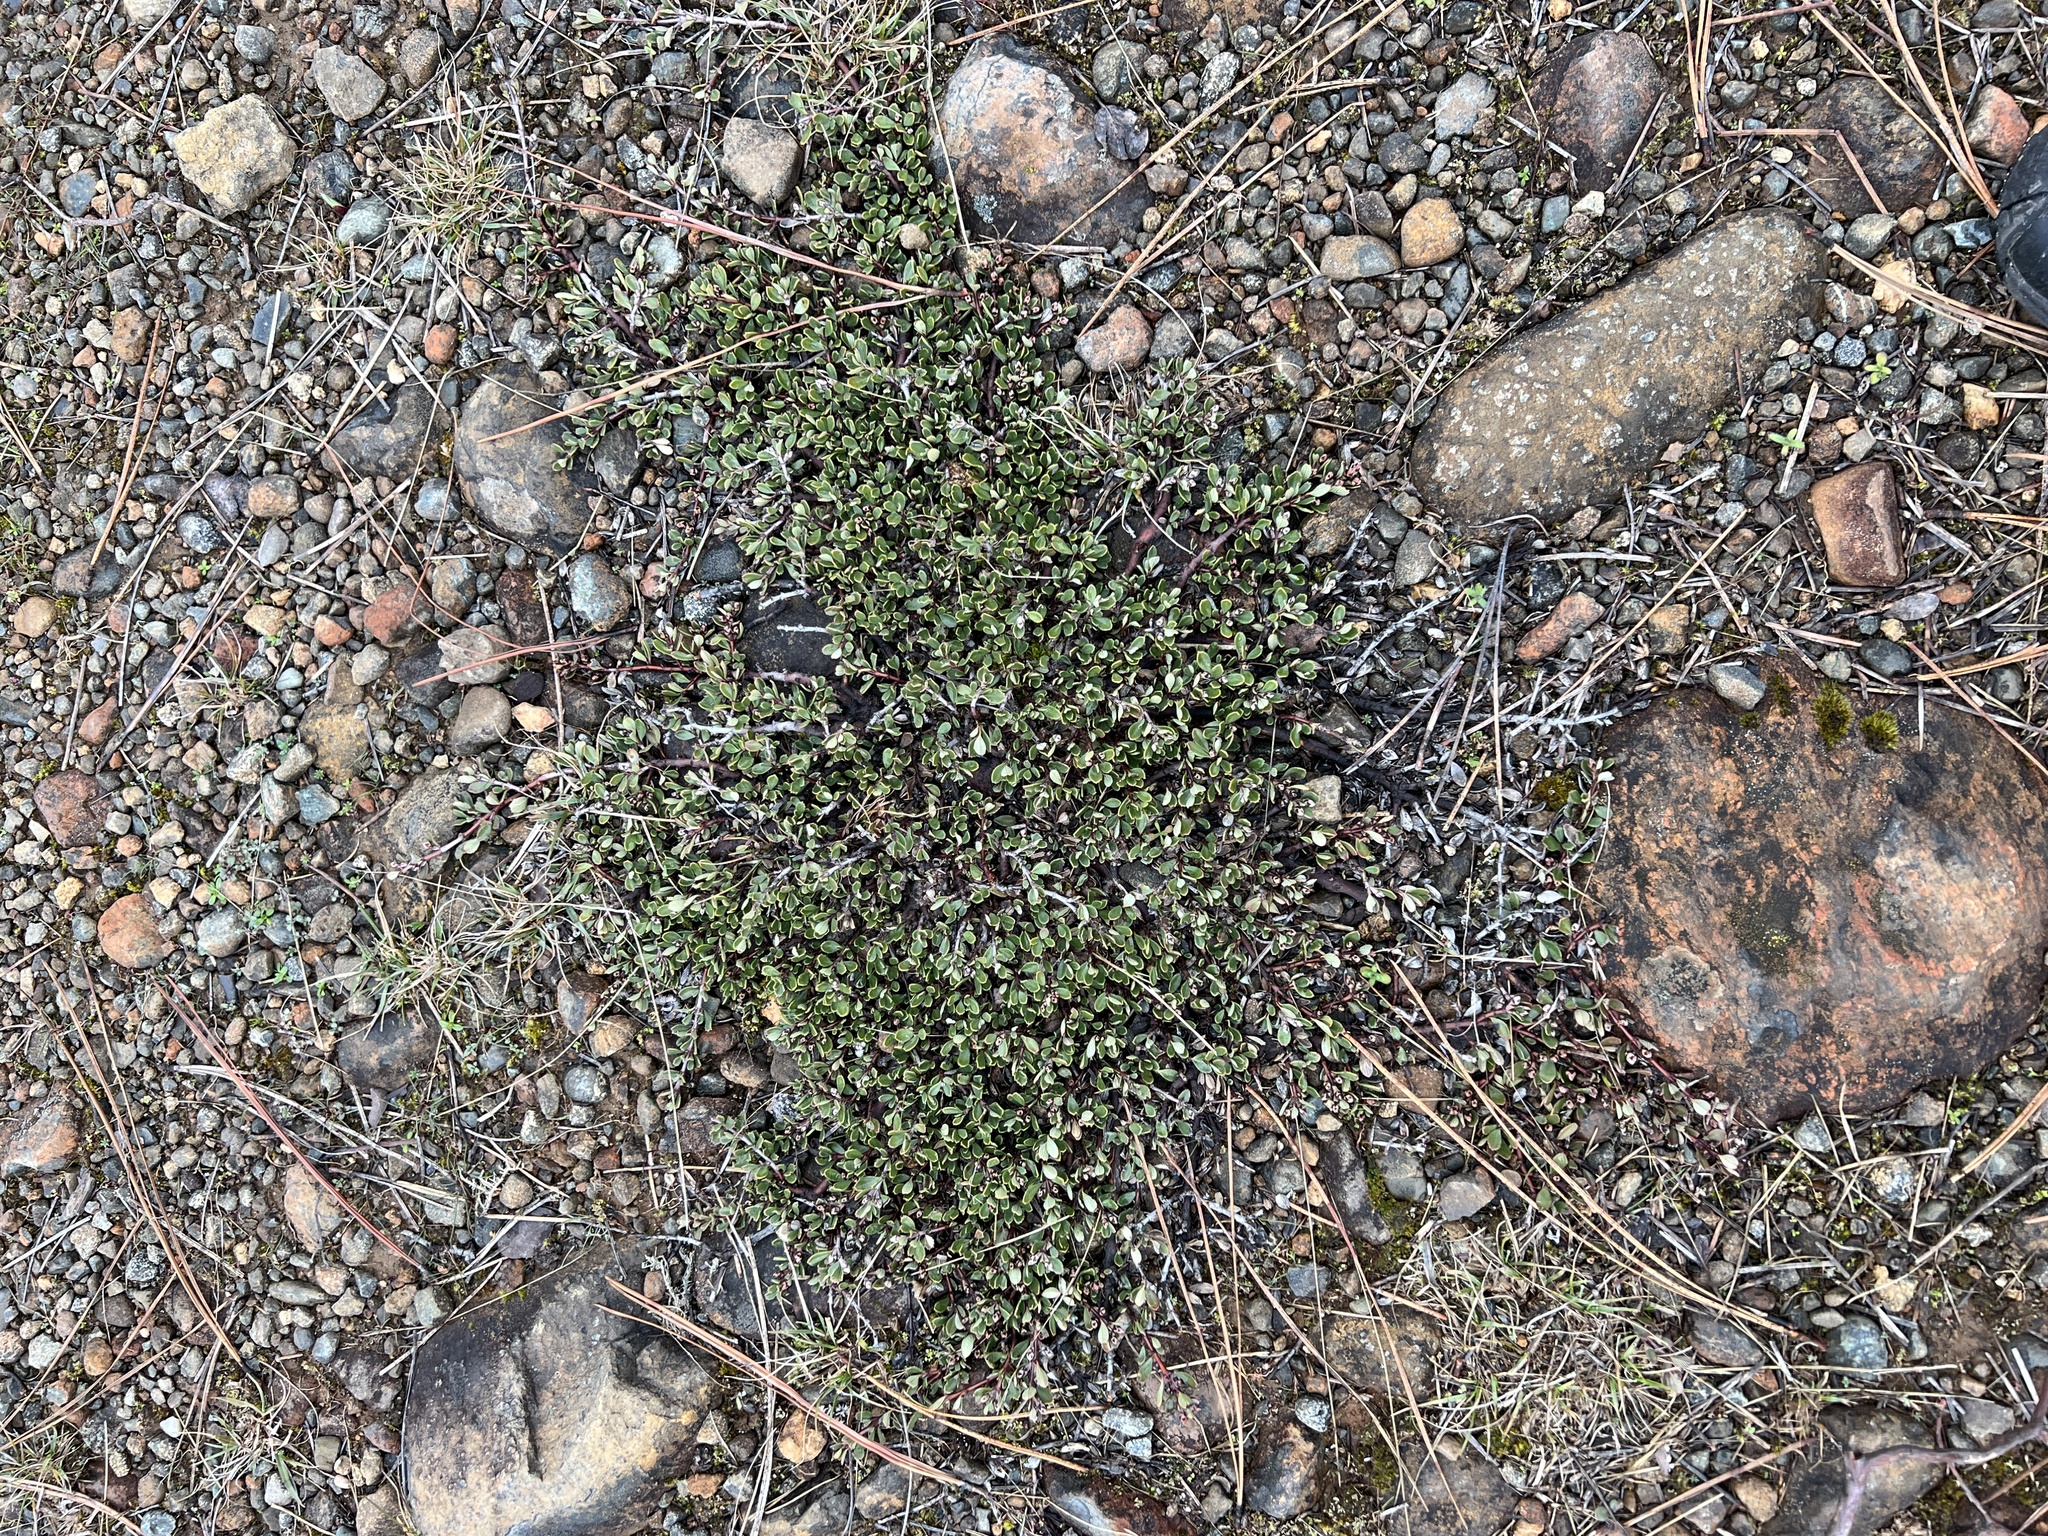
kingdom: Plantae
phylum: Tracheophyta
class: Magnoliopsida
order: Rosales
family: Rhamnaceae
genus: Ceanothus
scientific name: Ceanothus pumilus
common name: Siskiyou-mat
